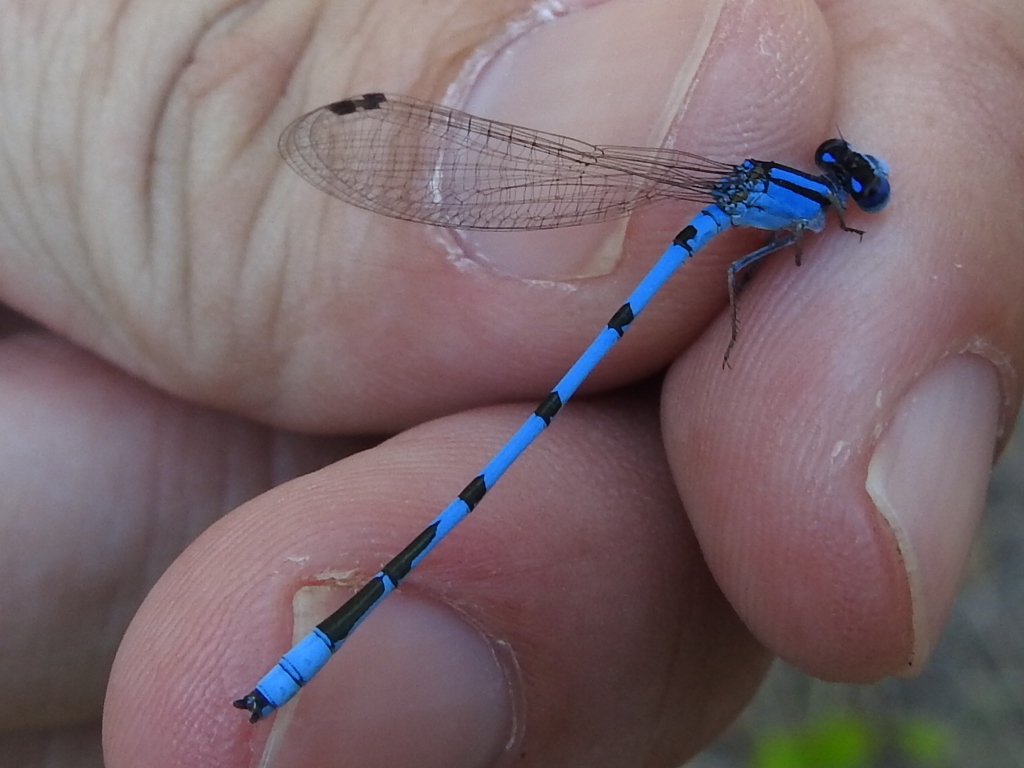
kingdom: Animalia
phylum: Arthropoda
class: Insecta
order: Odonata
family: Coenagrionidae
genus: Enallagma
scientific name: Enallagma civile
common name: Damselfly
